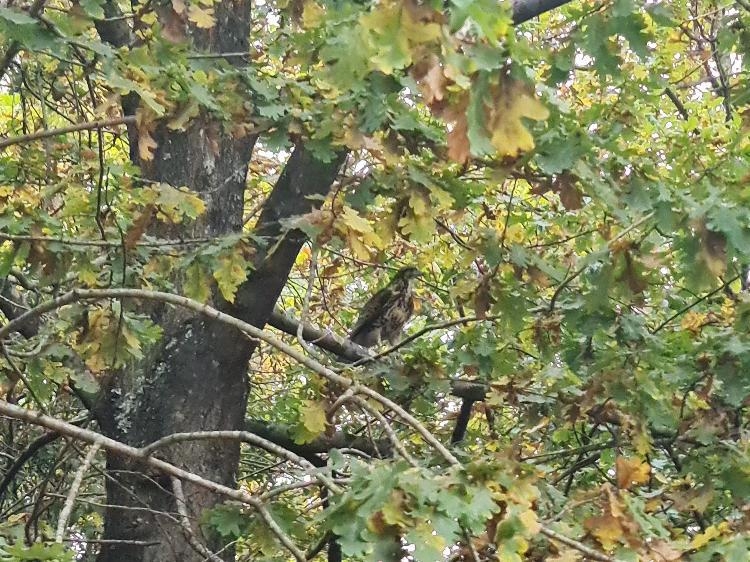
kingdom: Animalia
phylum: Chordata
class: Aves
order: Accipitriformes
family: Accipitridae
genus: Parabuteo
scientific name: Parabuteo unicinctus
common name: Harris's hawk
